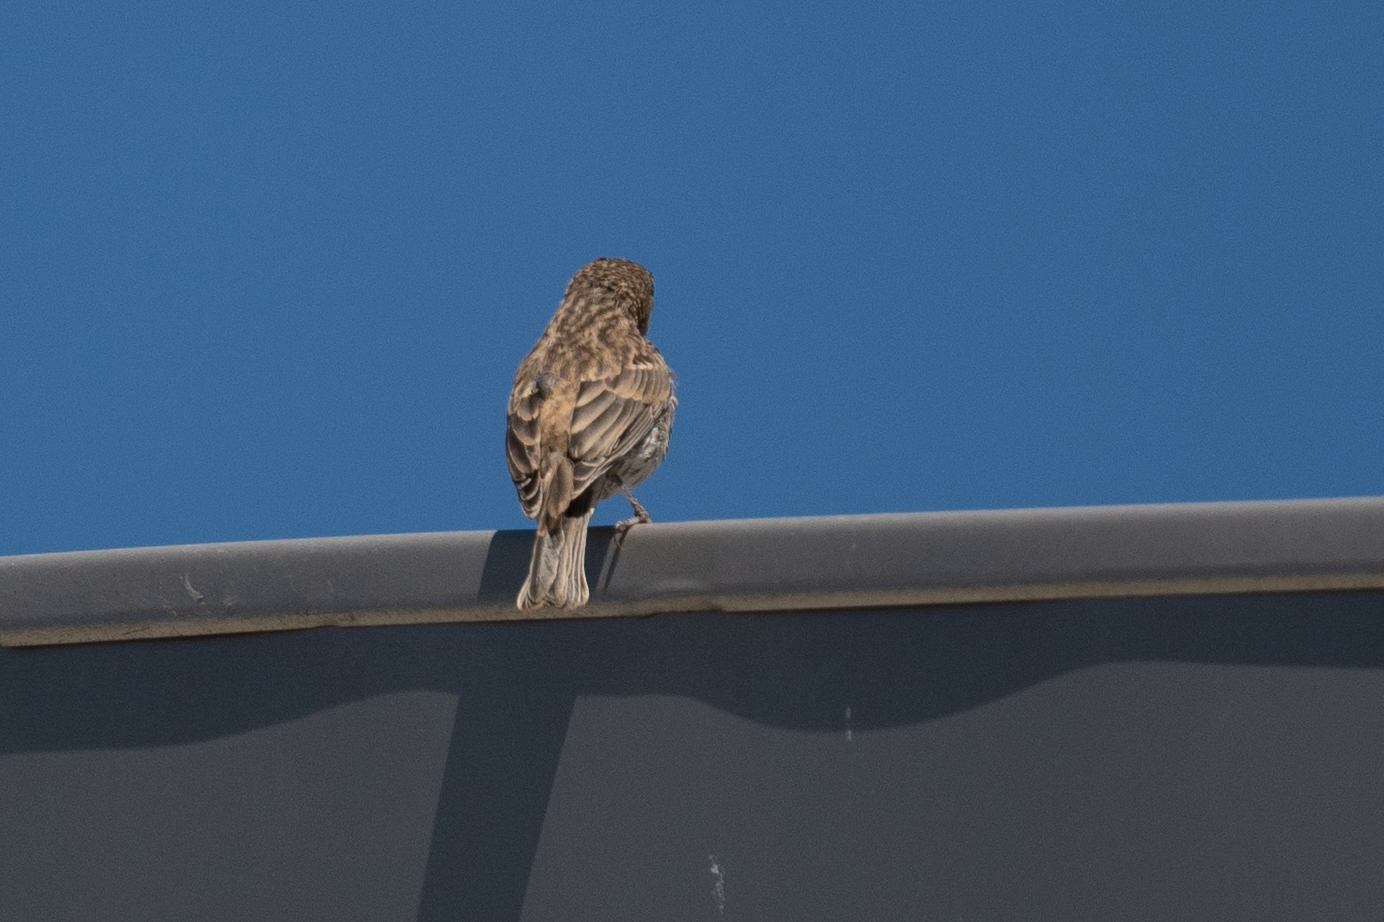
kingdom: Animalia
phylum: Chordata
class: Aves
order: Passeriformes
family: Fringillidae
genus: Haemorhous
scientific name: Haemorhous mexicanus
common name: House finch
